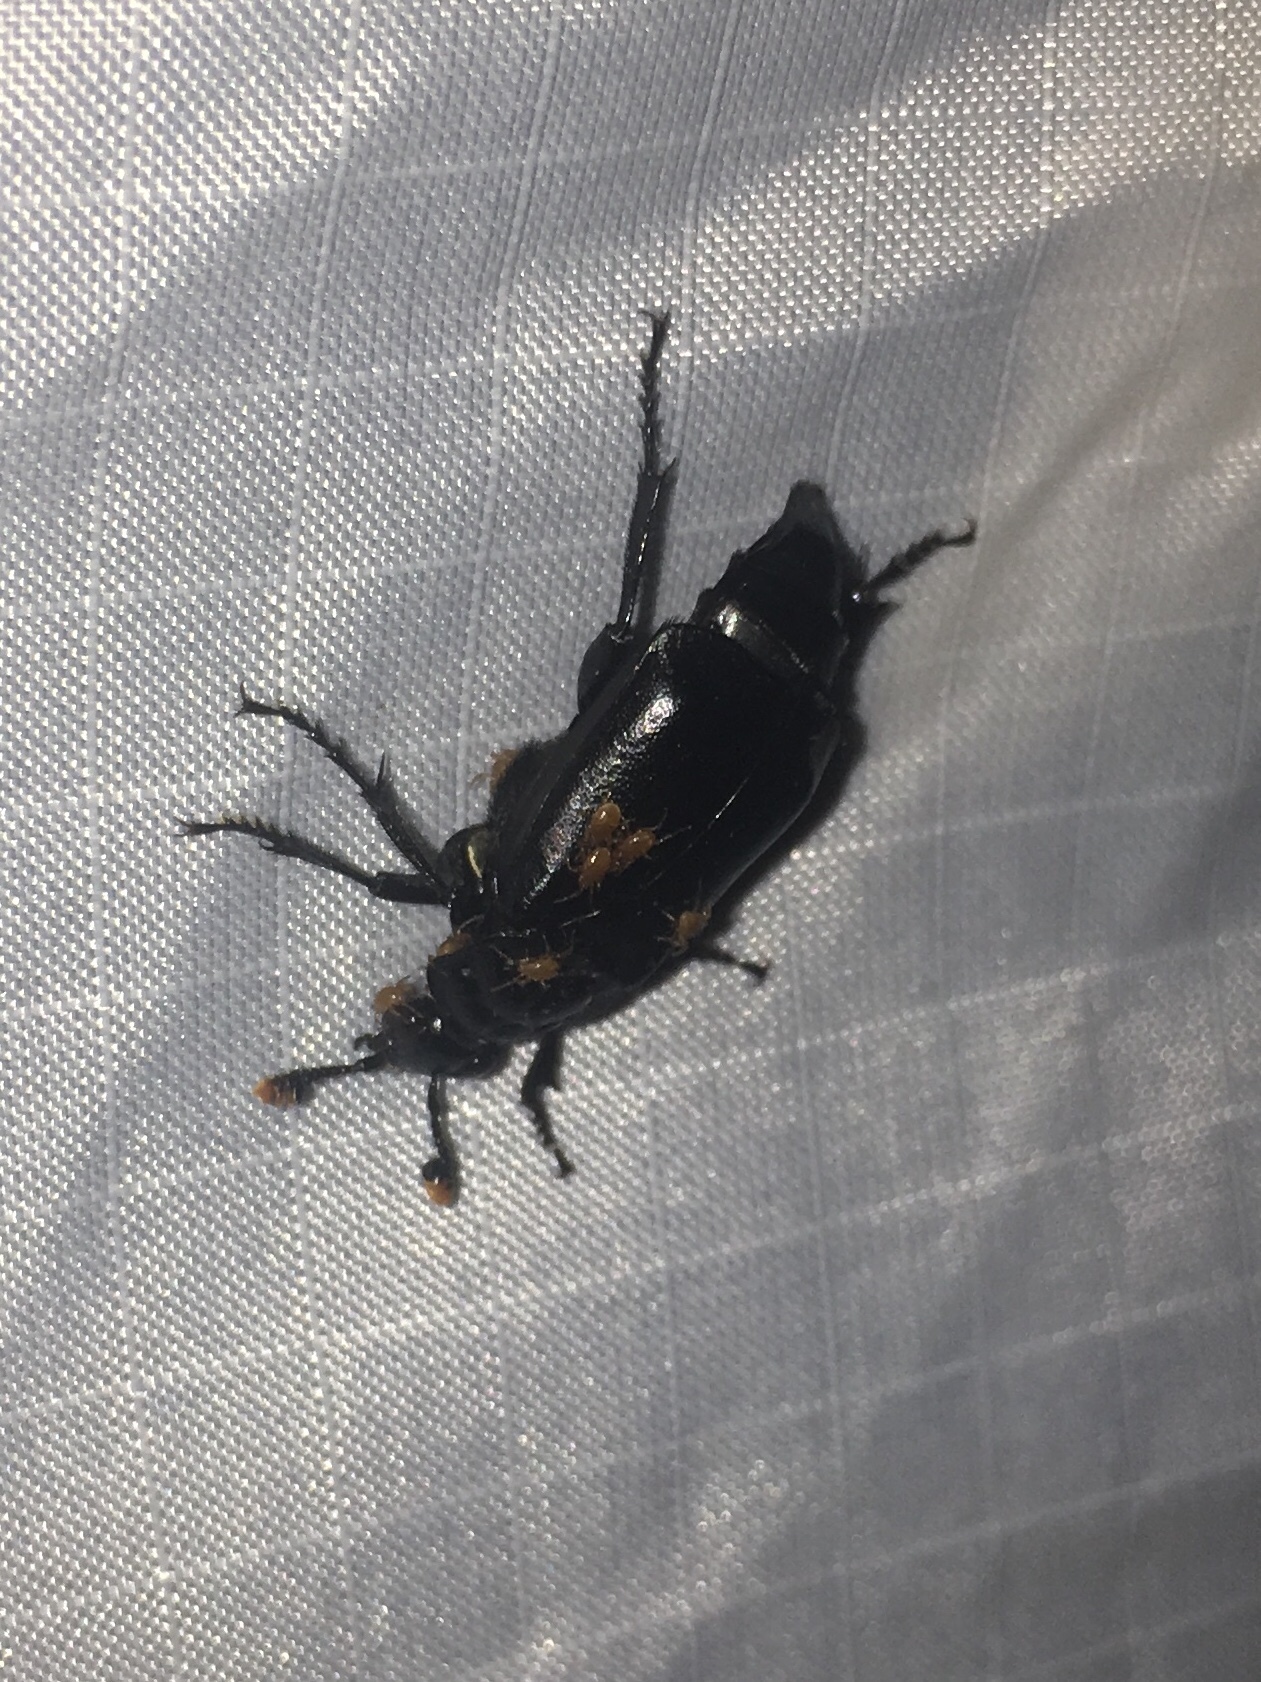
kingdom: Animalia
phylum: Arthropoda
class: Insecta
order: Coleoptera
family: Staphylinidae
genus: Nicrophorus
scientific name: Nicrophorus nigrita
